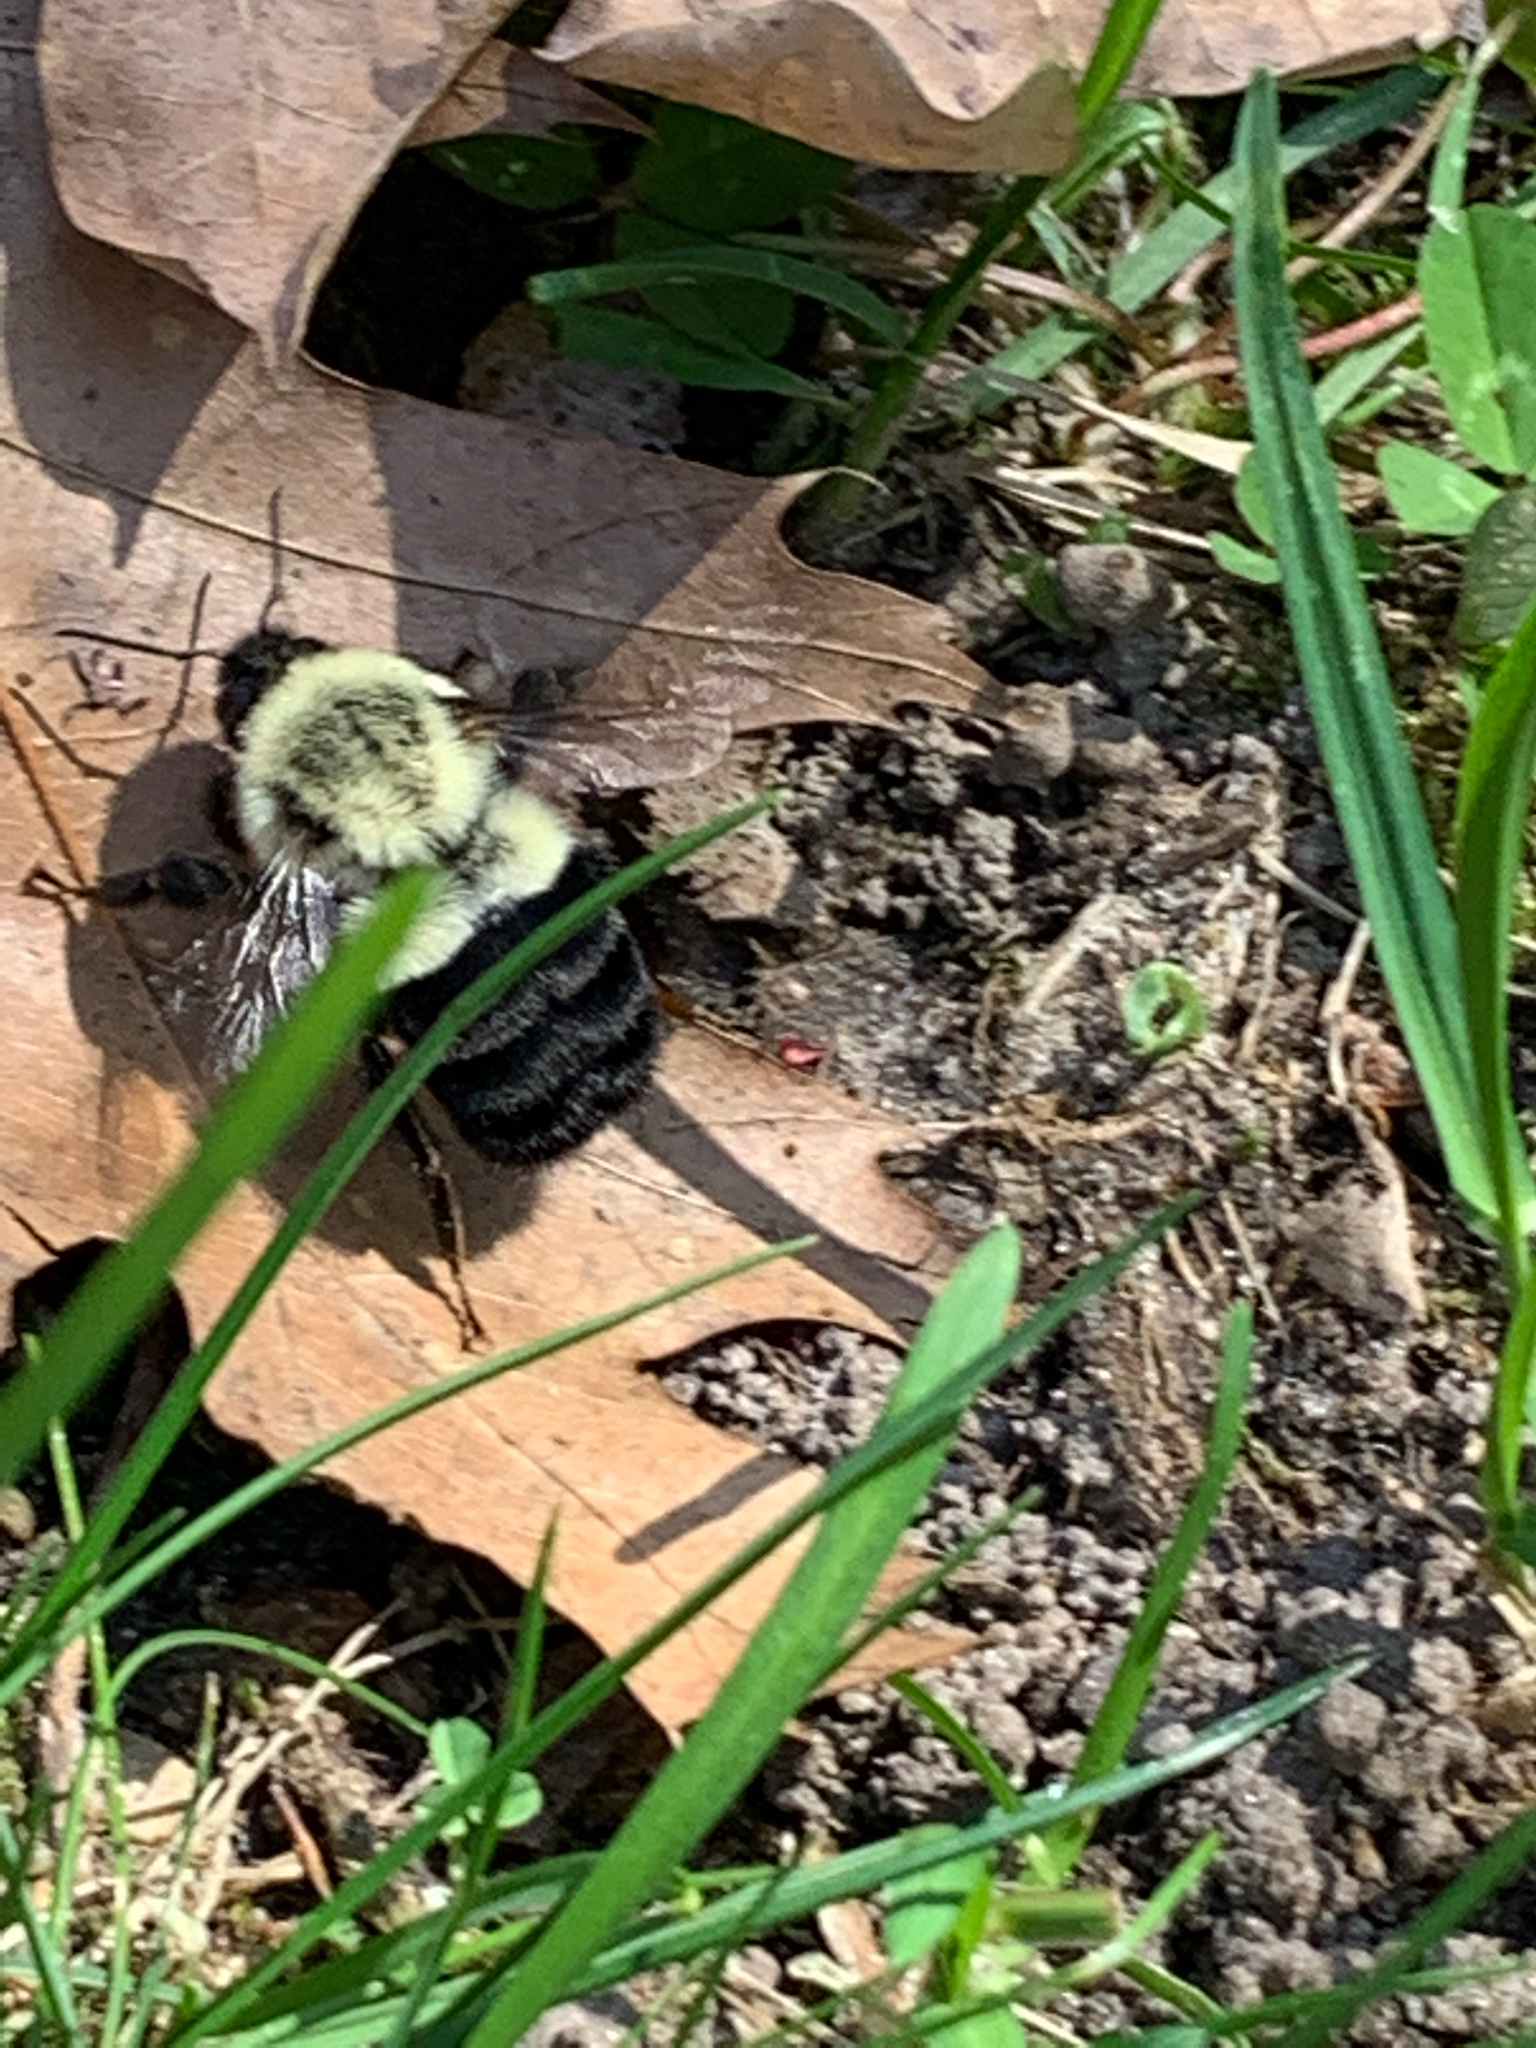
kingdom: Animalia
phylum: Arthropoda
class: Insecta
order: Hymenoptera
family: Apidae
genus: Bombus
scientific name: Bombus impatiens
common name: Common eastern bumble bee
